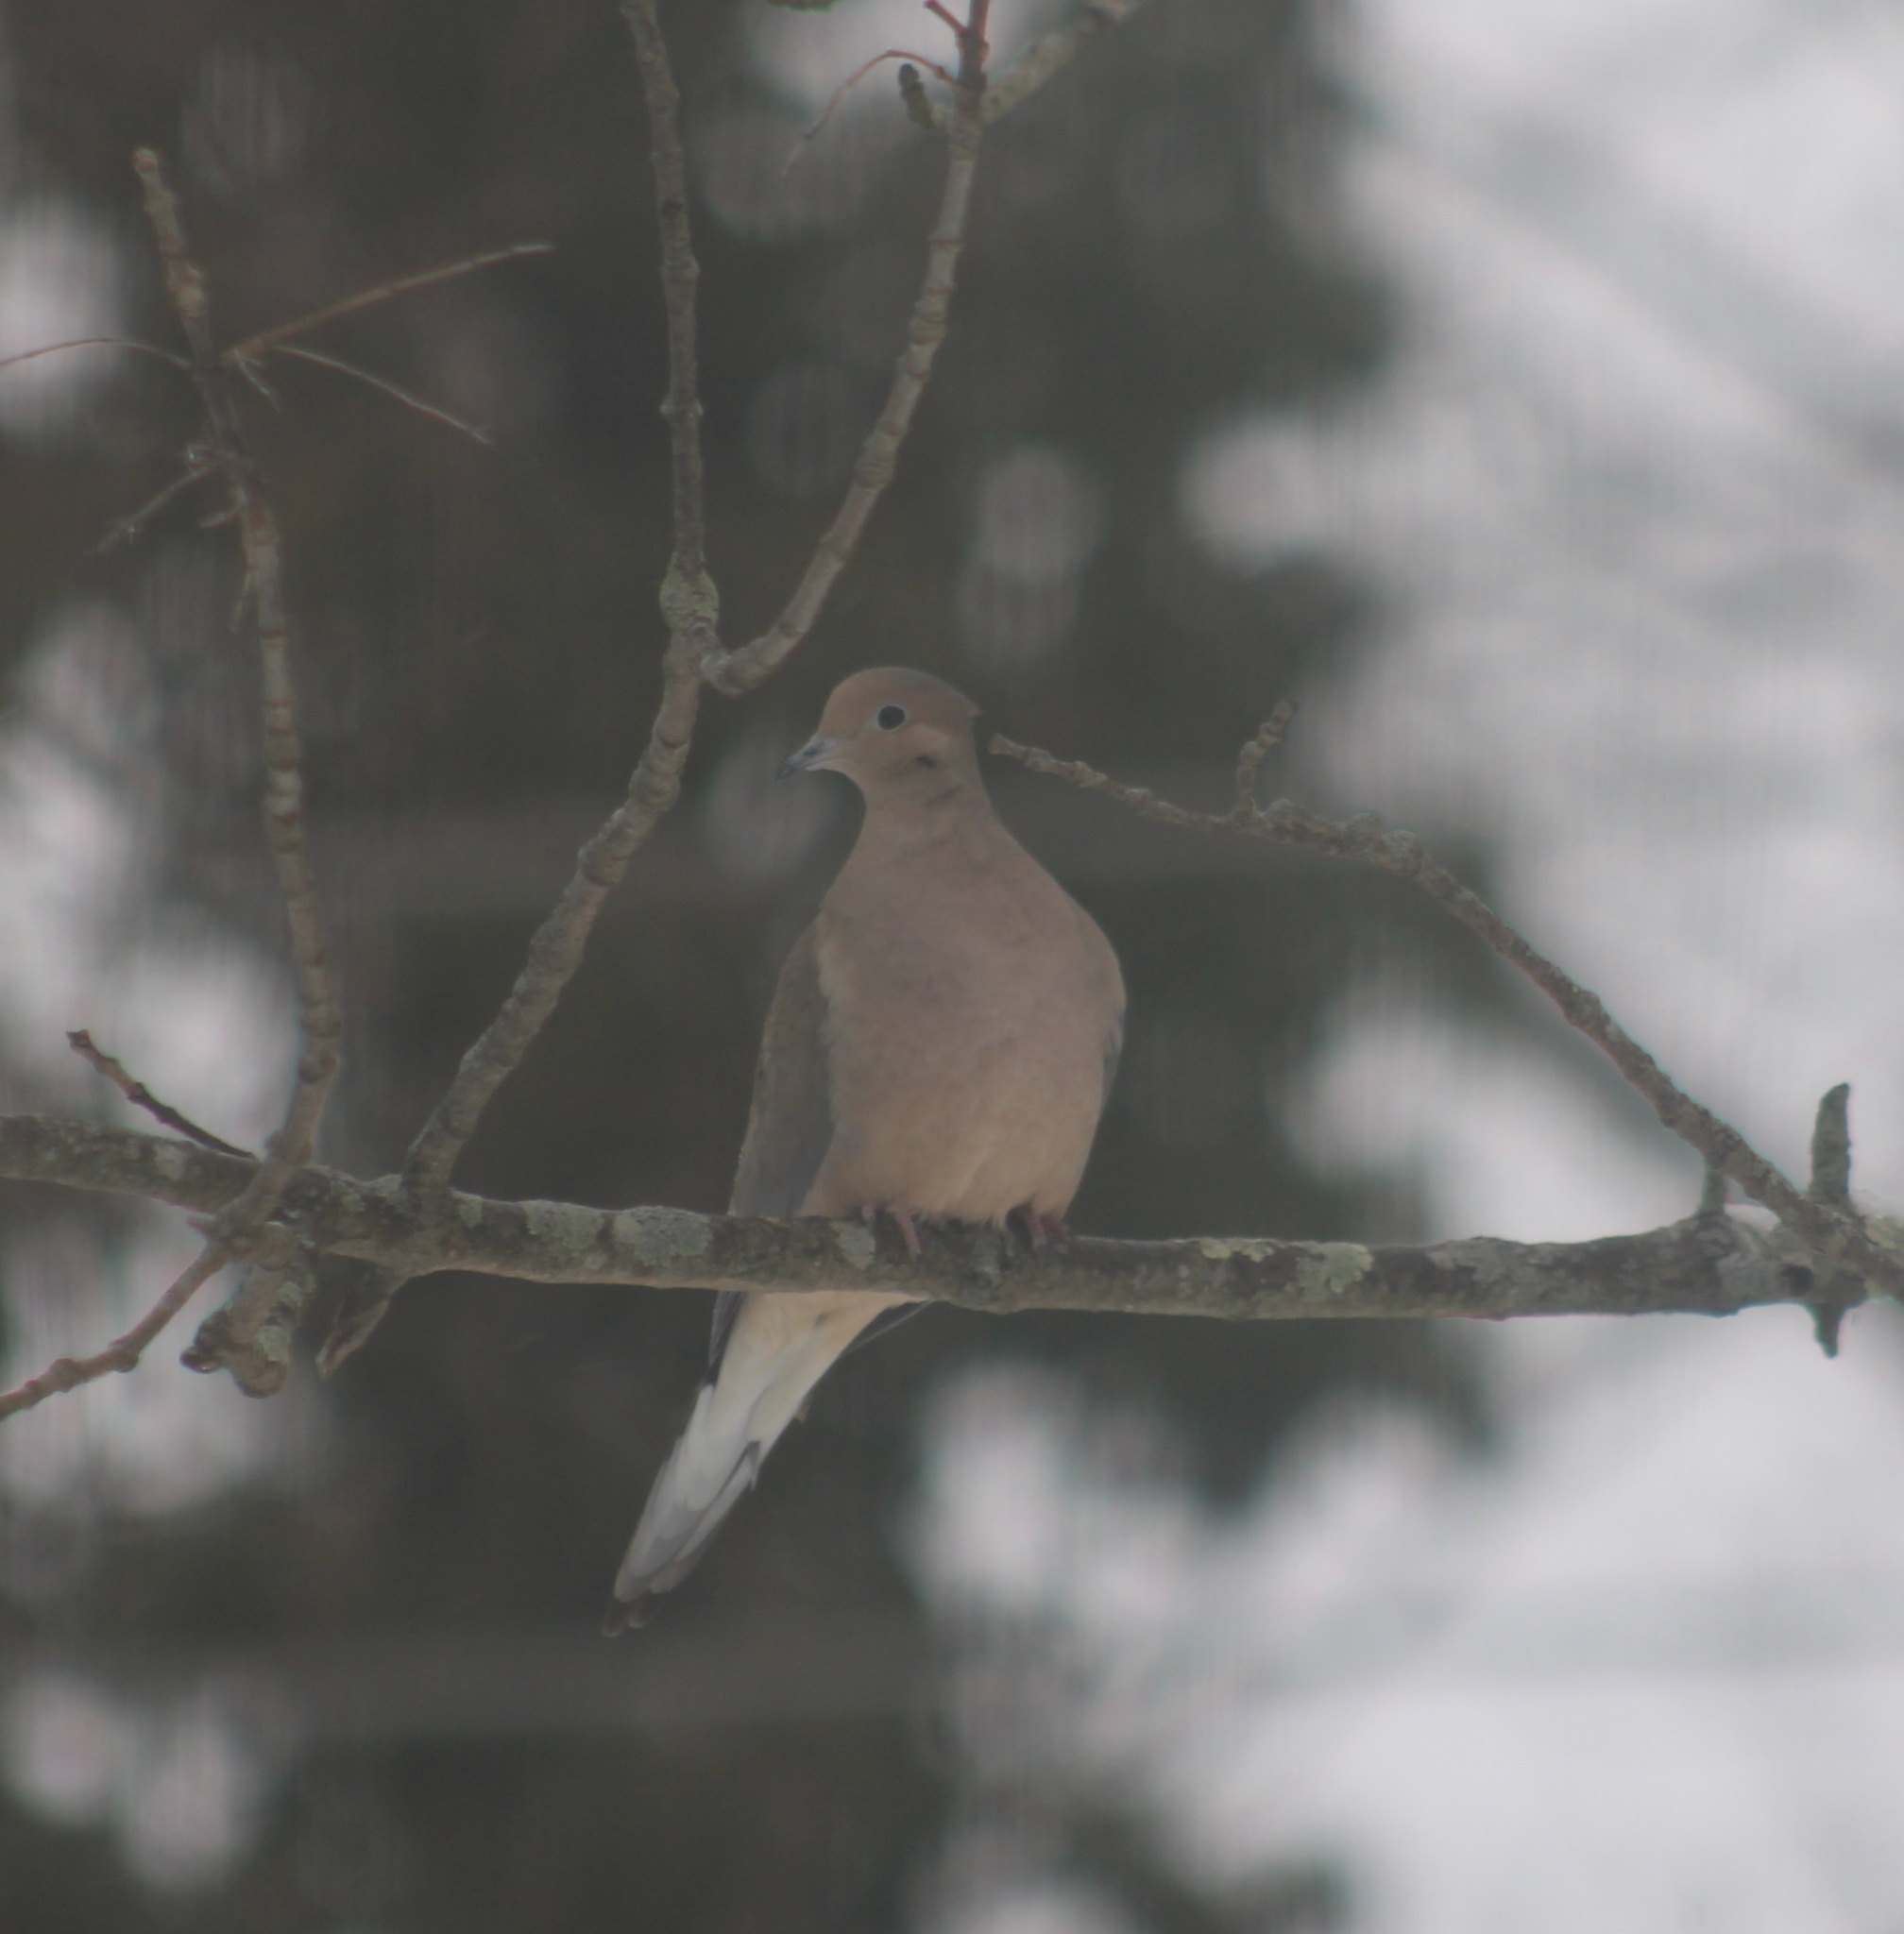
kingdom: Animalia
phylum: Chordata
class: Aves
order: Columbiformes
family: Columbidae
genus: Zenaida
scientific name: Zenaida macroura
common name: Mourning dove
